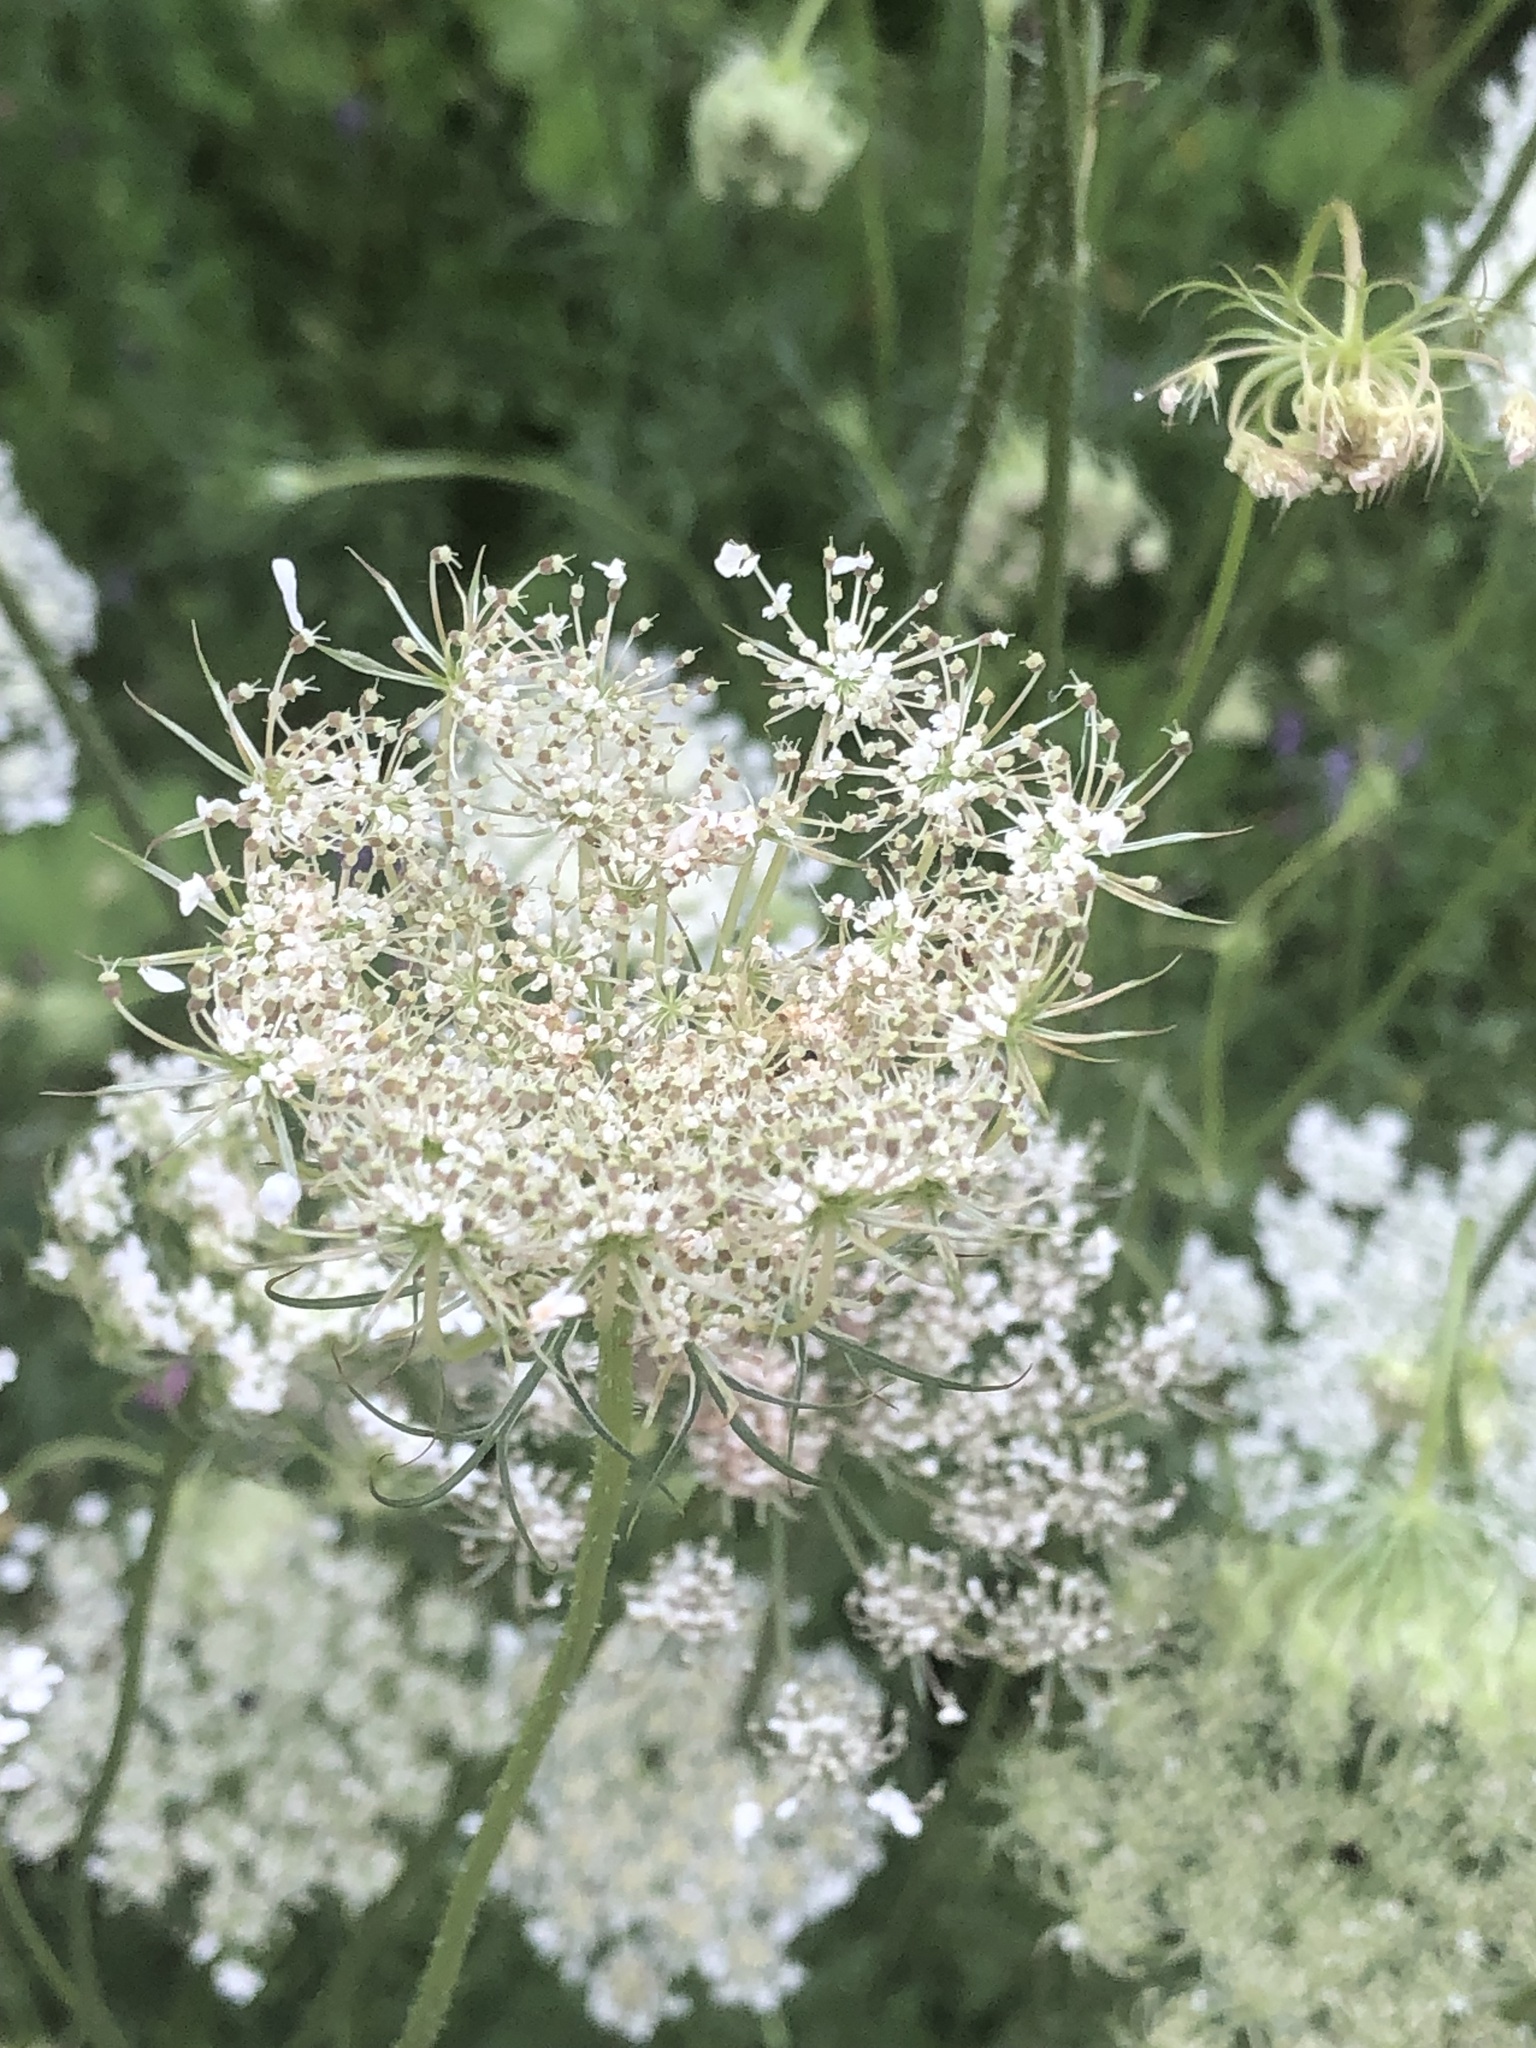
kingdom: Plantae
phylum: Tracheophyta
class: Magnoliopsida
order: Apiales
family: Apiaceae
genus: Daucus
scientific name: Daucus carota
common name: Wild carrot
